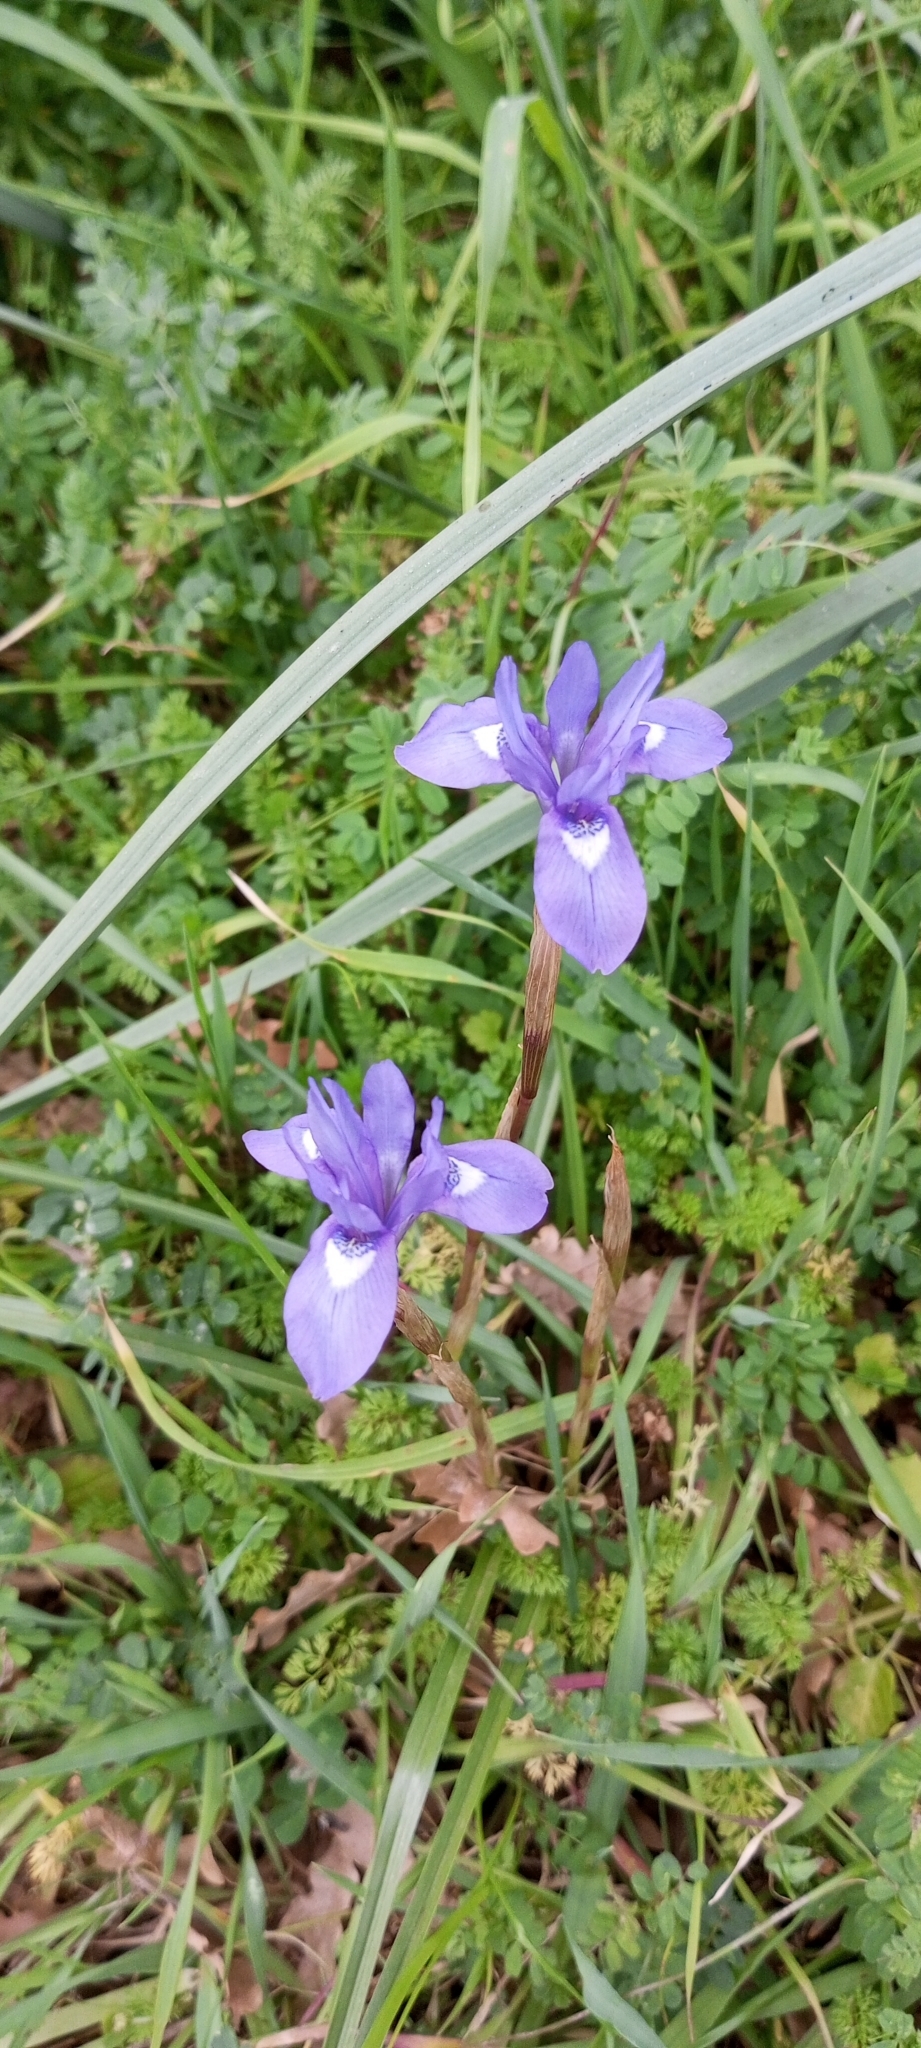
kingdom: Plantae
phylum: Tracheophyta
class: Liliopsida
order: Asparagales
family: Iridaceae
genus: Moraea
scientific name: Moraea sisyrinchium
